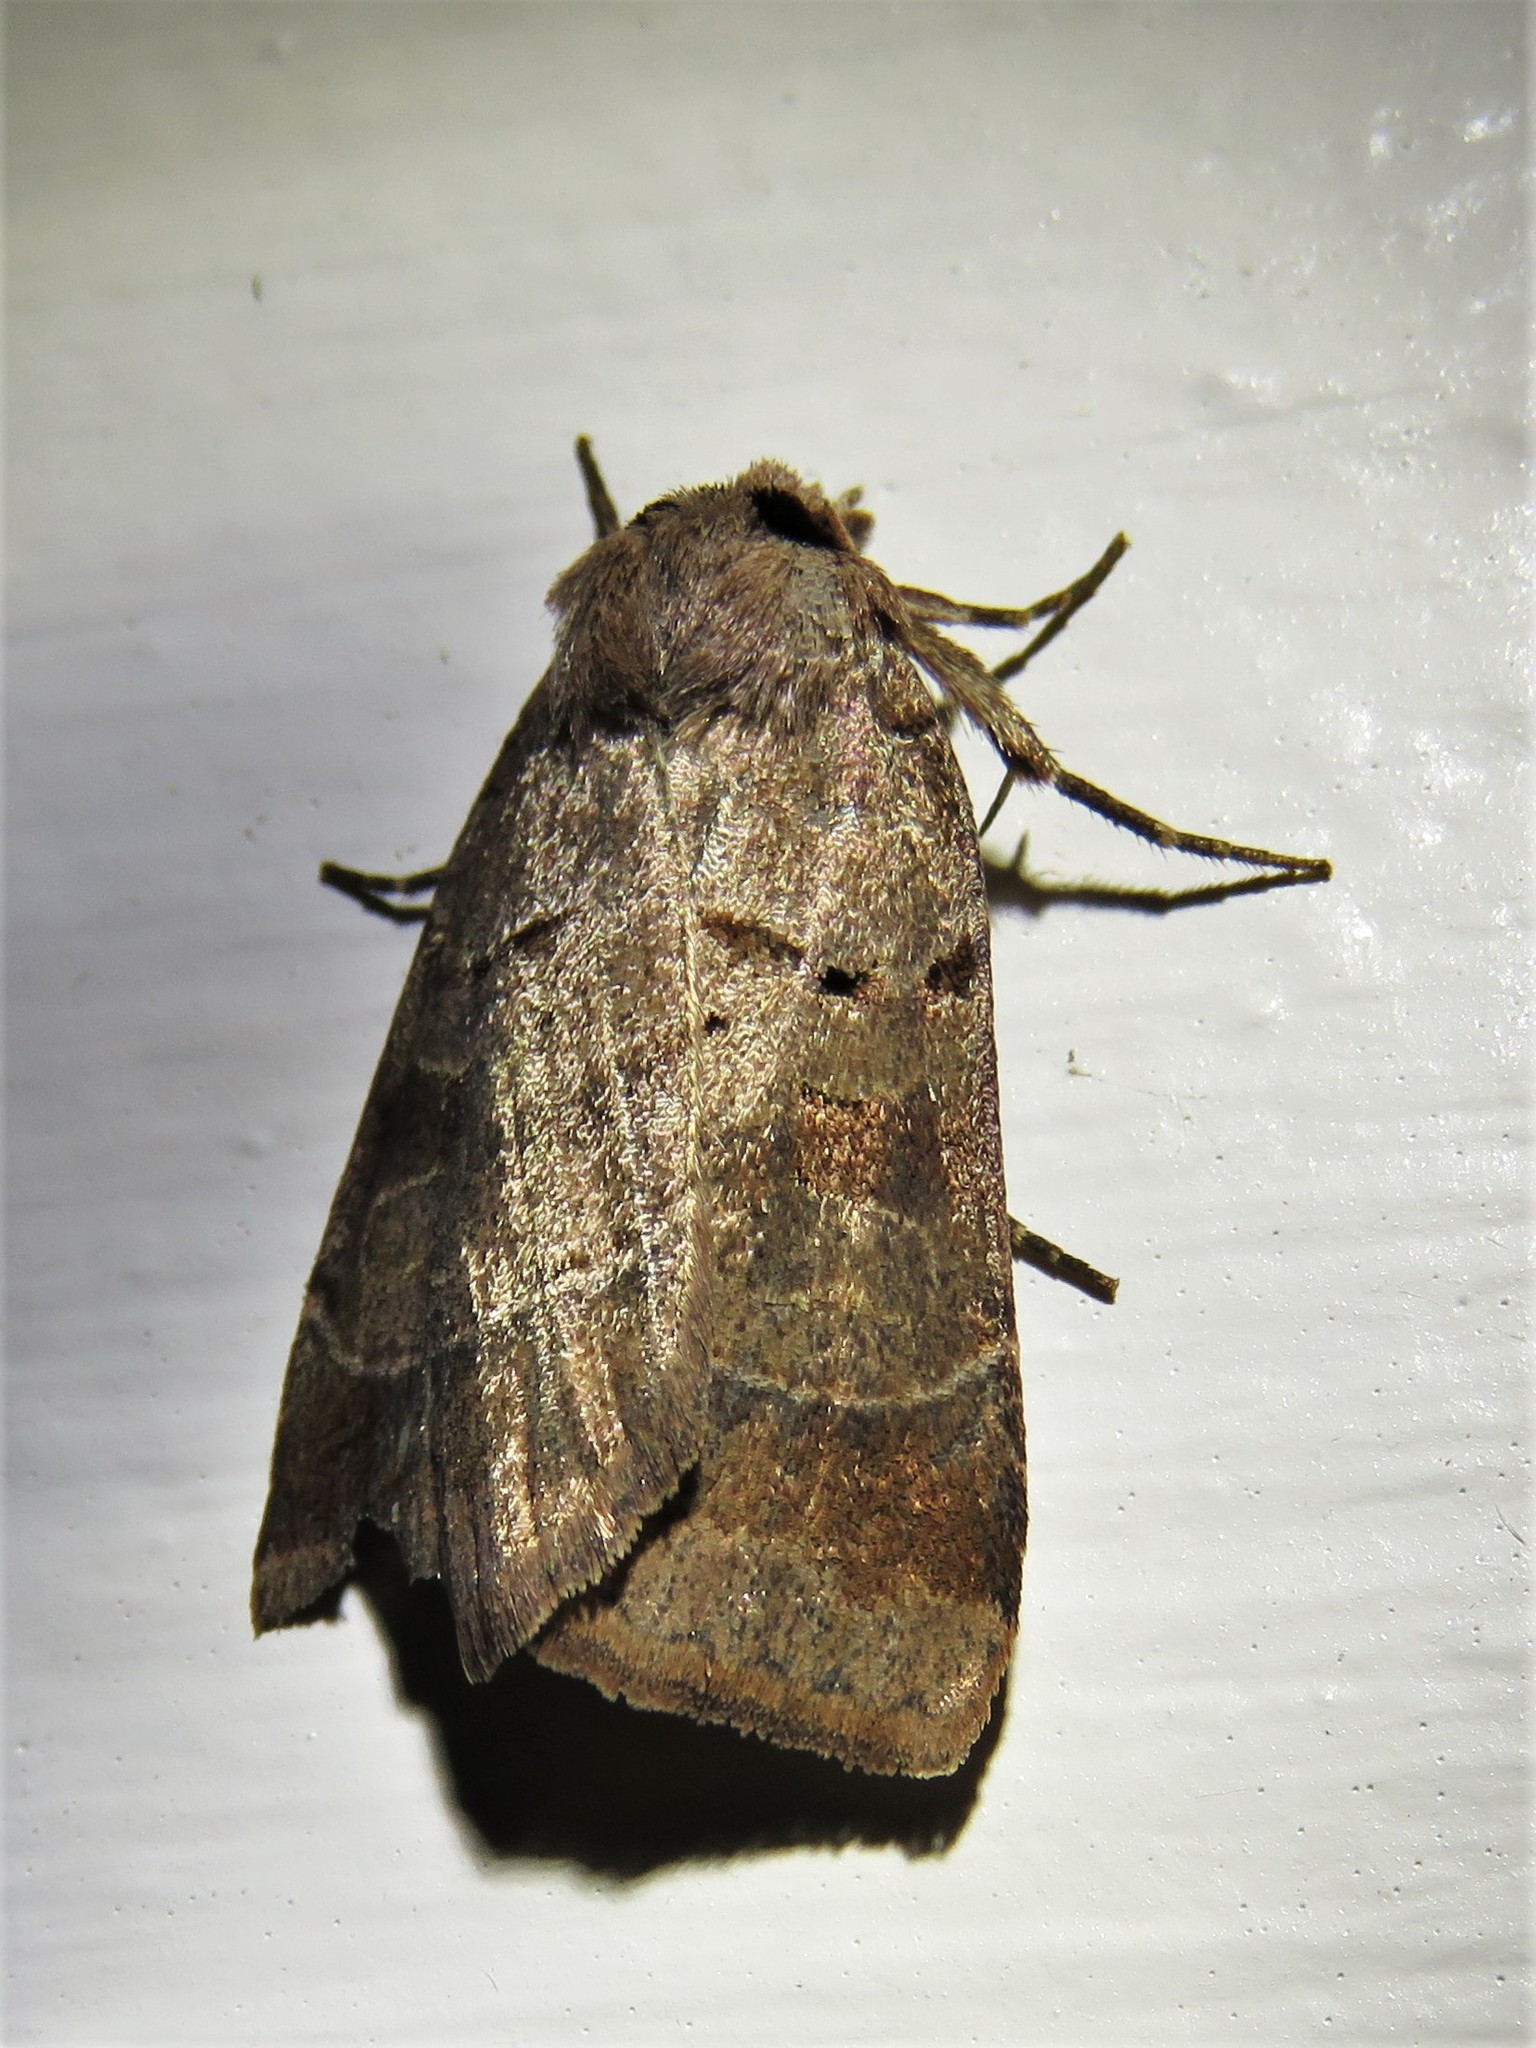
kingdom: Animalia
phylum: Arthropoda
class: Insecta
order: Lepidoptera
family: Noctuidae
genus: Agnorisma
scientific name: Agnorisma badinodis
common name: Pale-banded dart
